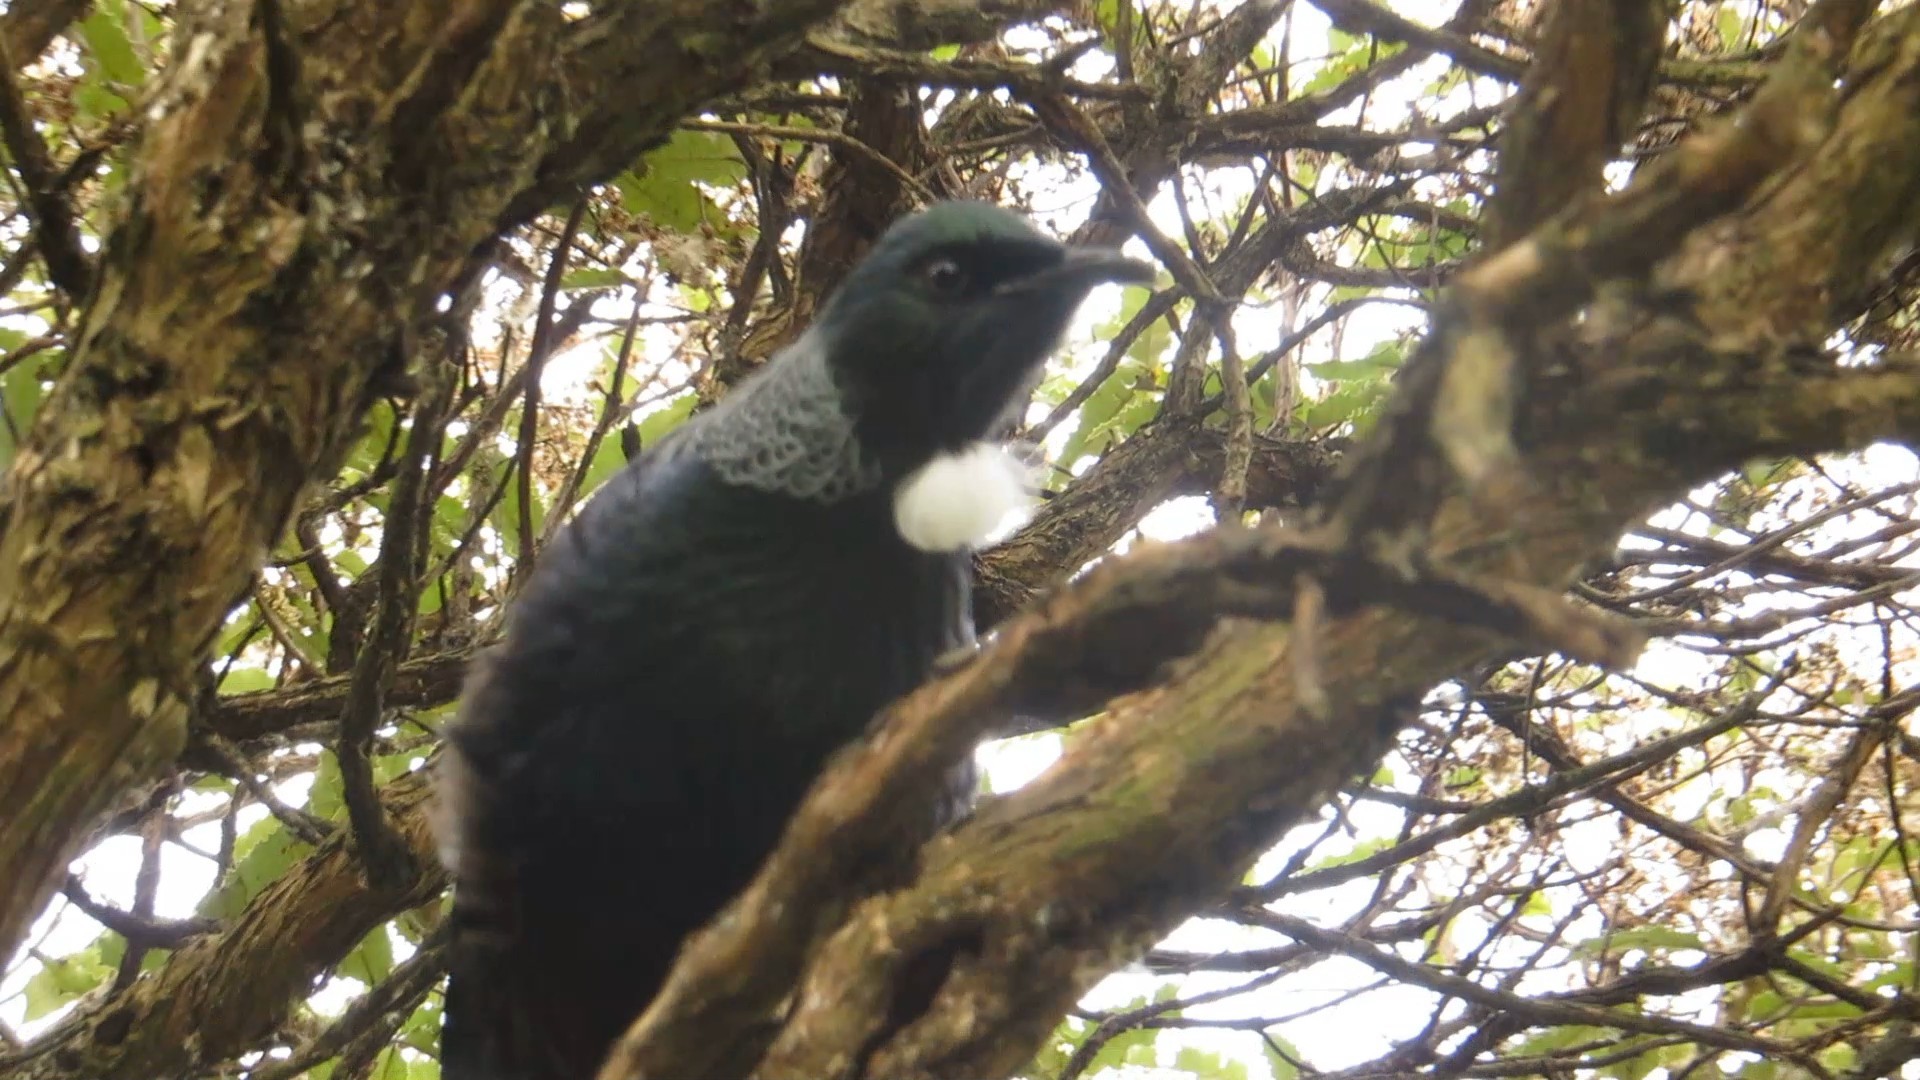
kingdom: Animalia
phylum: Chordata
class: Aves
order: Passeriformes
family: Meliphagidae
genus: Prosthemadera
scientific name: Prosthemadera novaeseelandiae
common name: Tui
